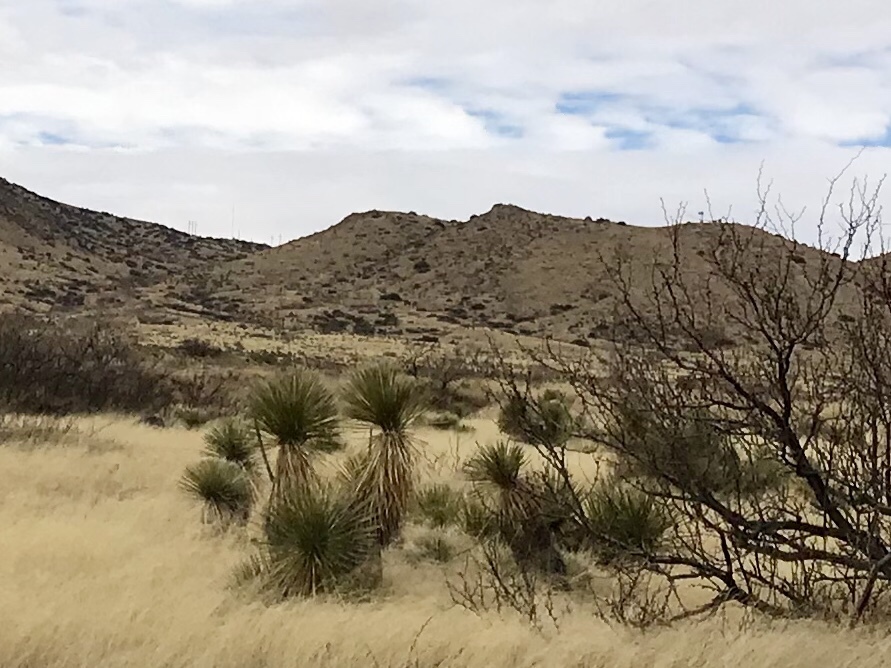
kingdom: Plantae
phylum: Tracheophyta
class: Liliopsida
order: Asparagales
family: Asparagaceae
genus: Yucca
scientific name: Yucca elata
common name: Palmella
